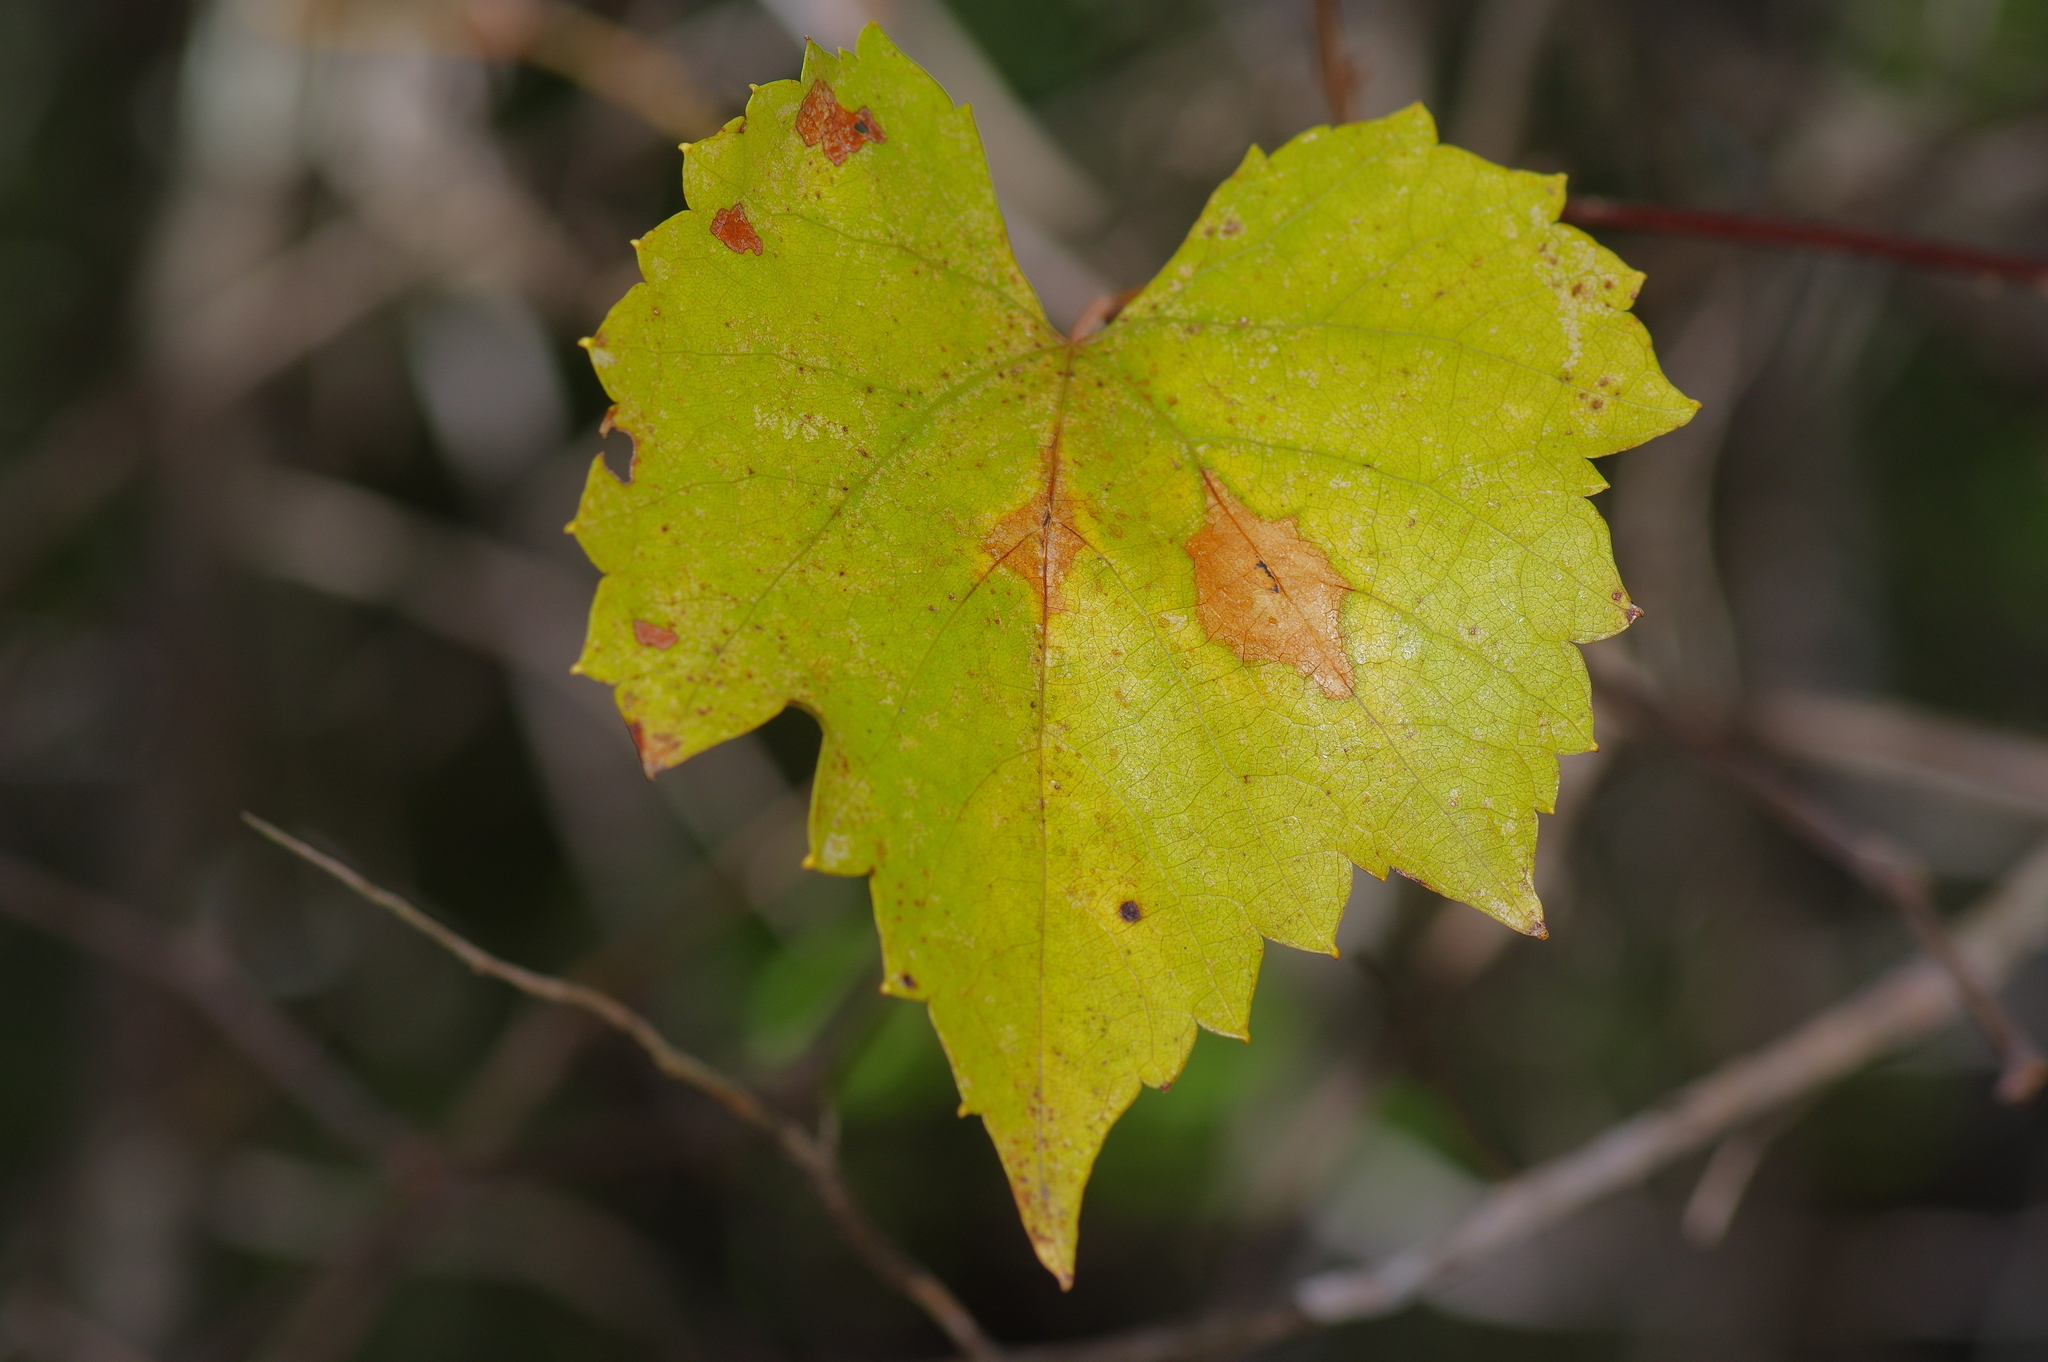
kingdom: Plantae
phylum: Tracheophyta
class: Magnoliopsida
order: Vitales
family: Vitaceae
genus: Vitis
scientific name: Vitis monticola
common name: Mountain grape
